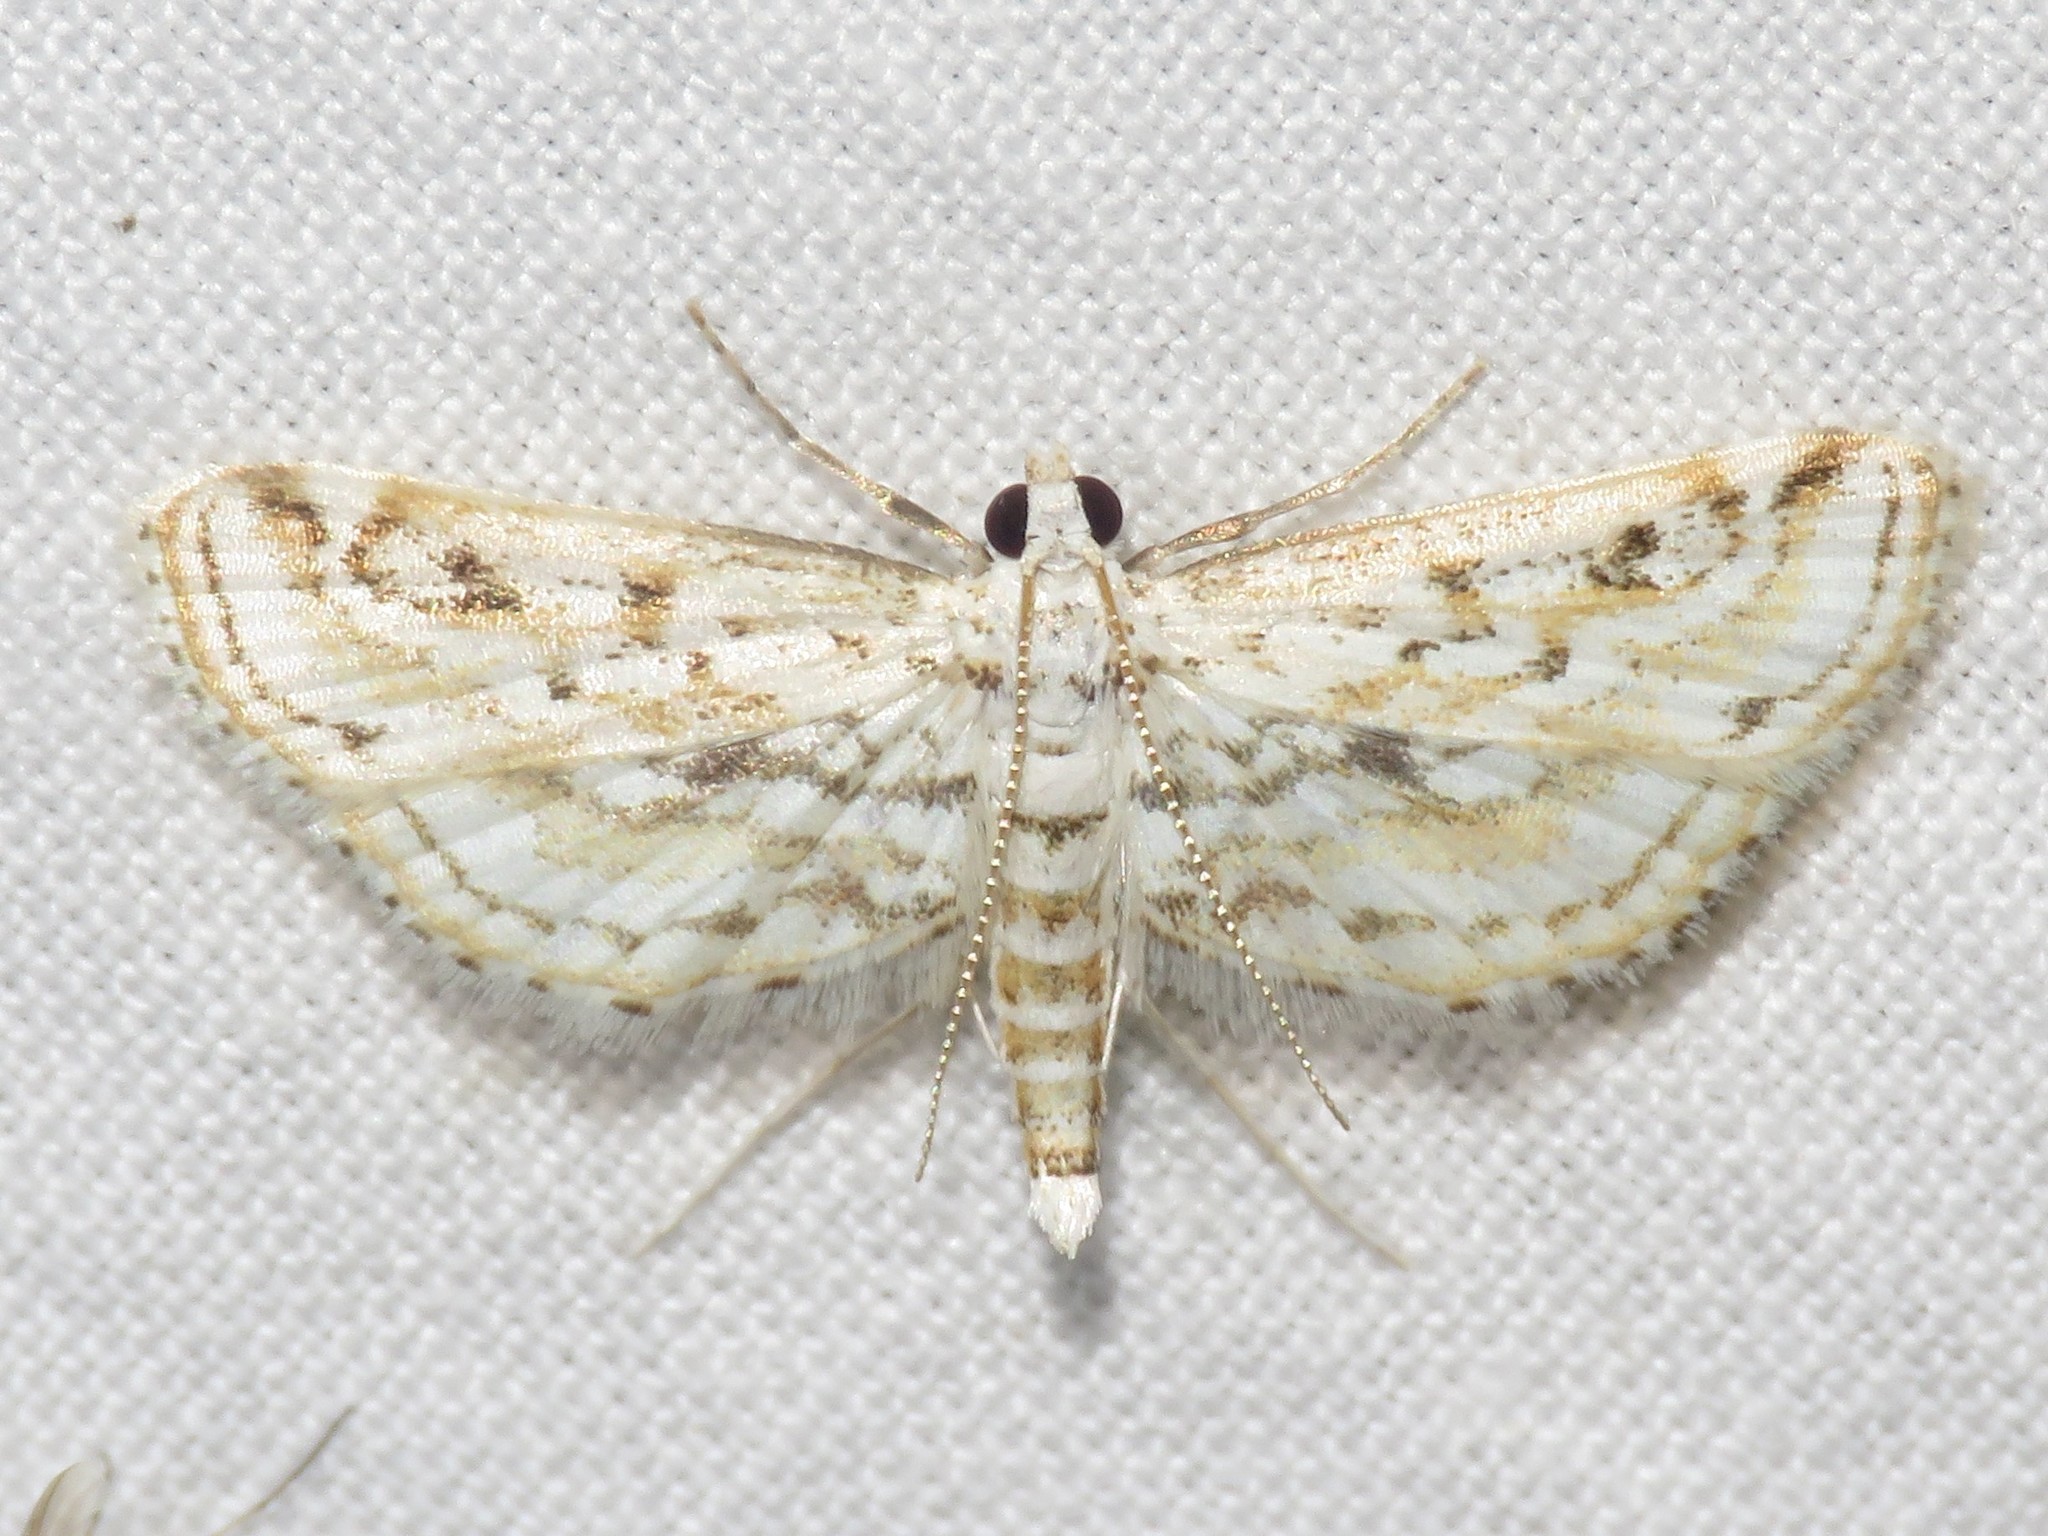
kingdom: Animalia
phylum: Arthropoda
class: Insecta
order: Lepidoptera
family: Crambidae
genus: Parapoynx
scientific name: Parapoynx allionealis
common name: Bladderwort casemaker
